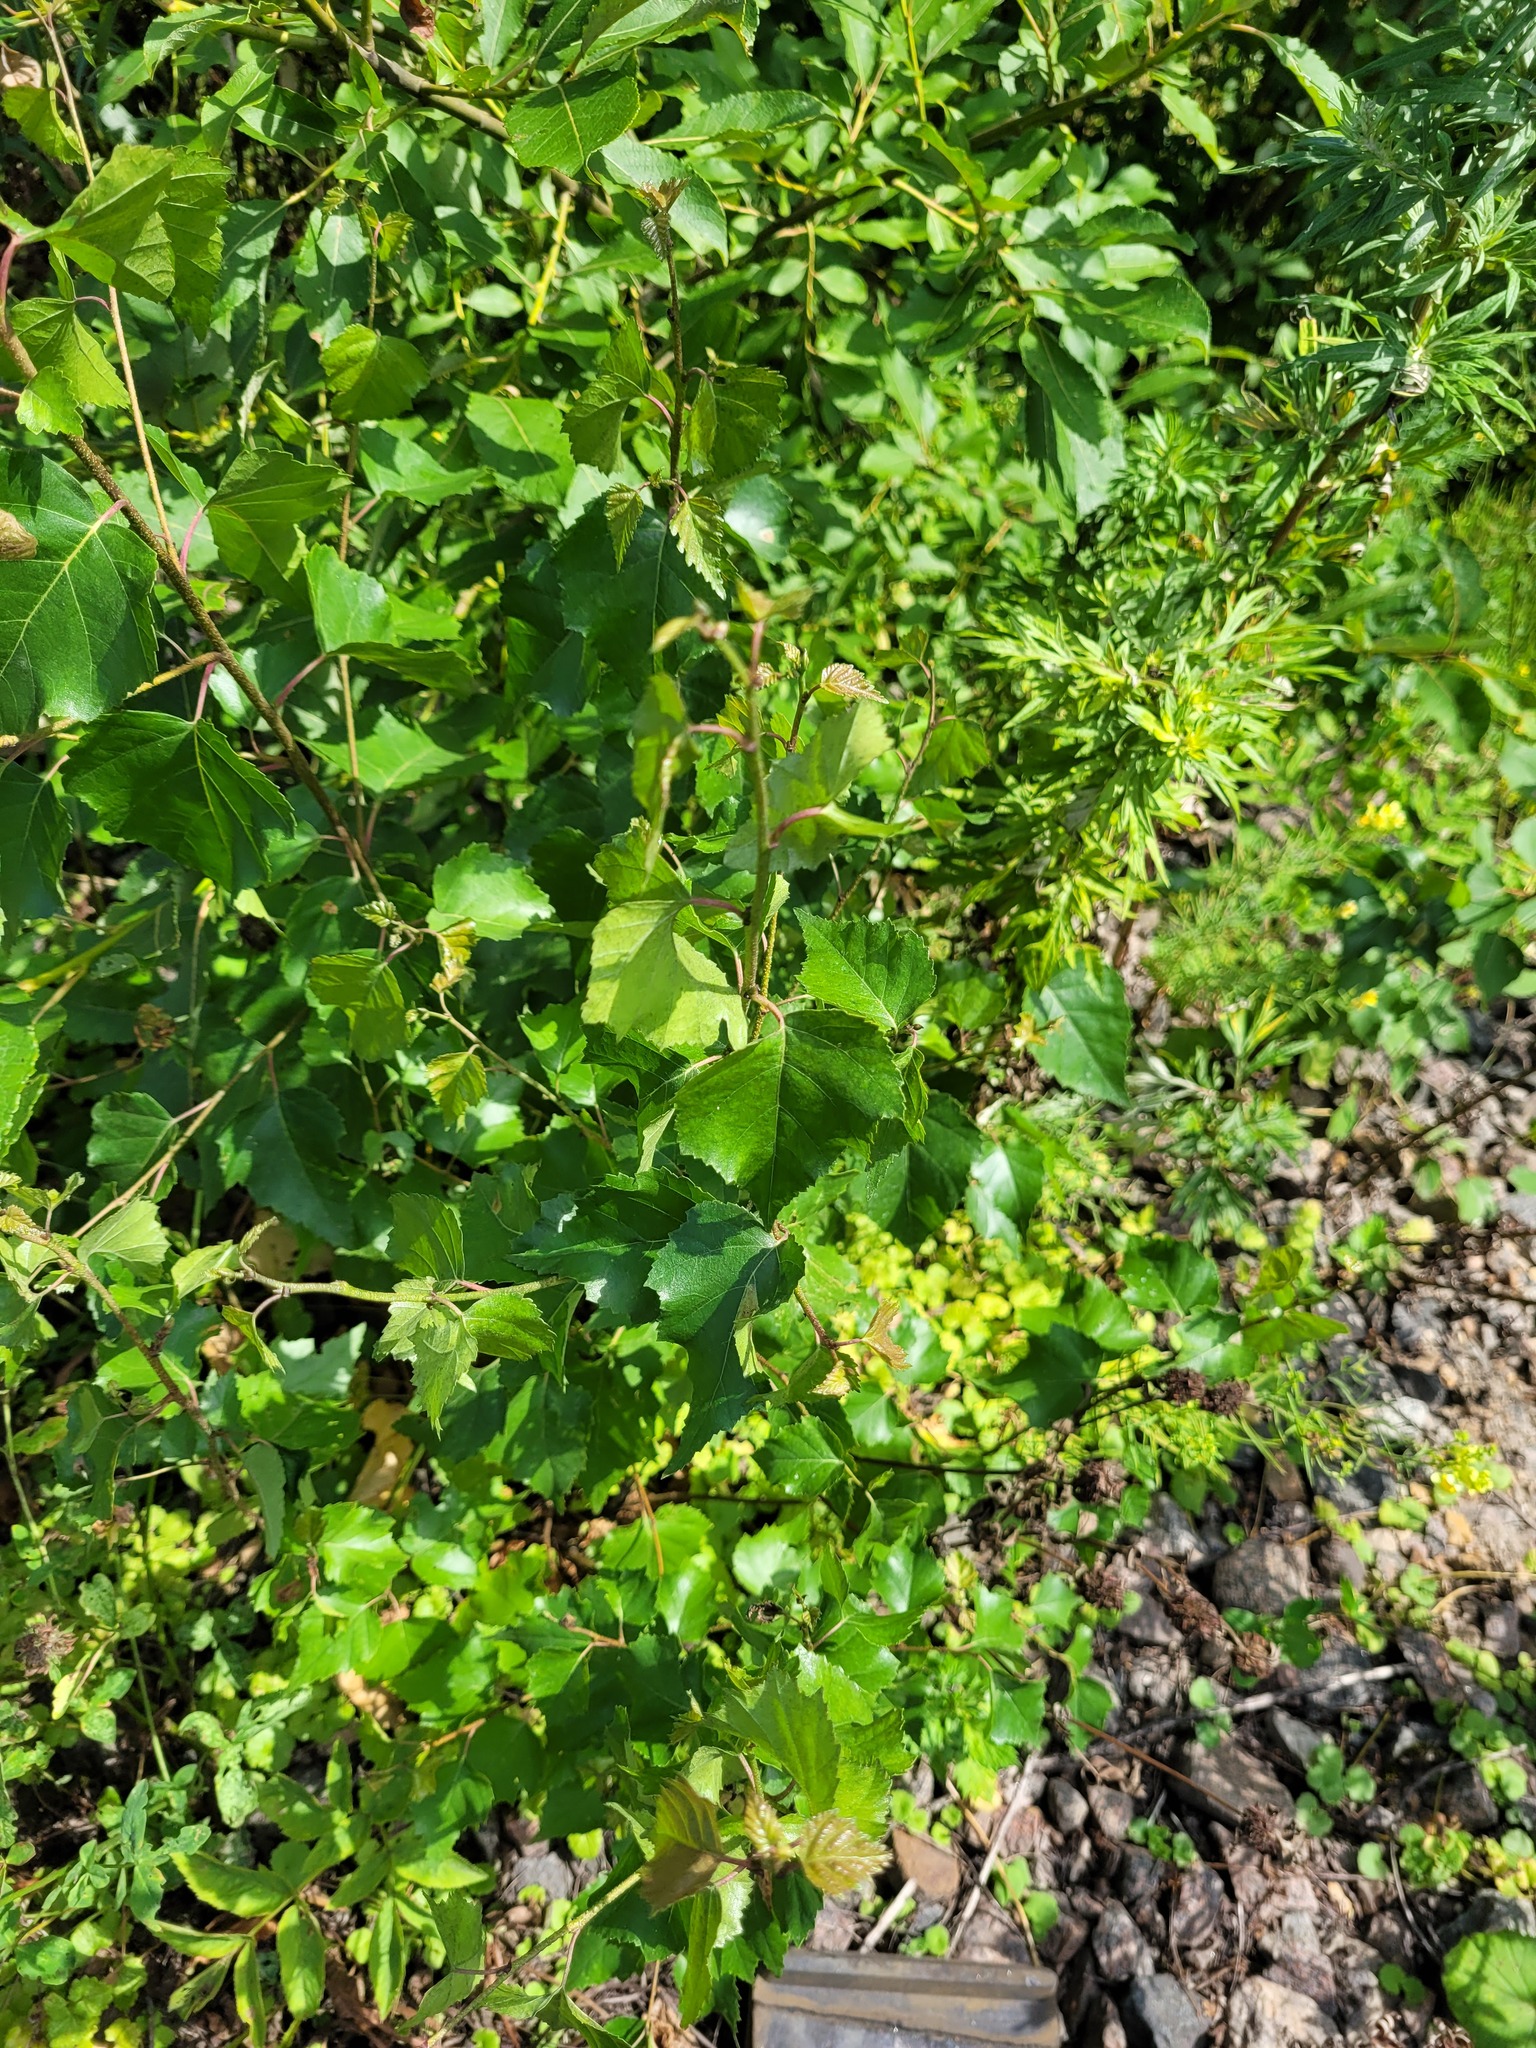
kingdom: Plantae
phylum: Tracheophyta
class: Magnoliopsida
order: Fagales
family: Betulaceae
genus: Betula
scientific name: Betula pendula
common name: Silver birch
